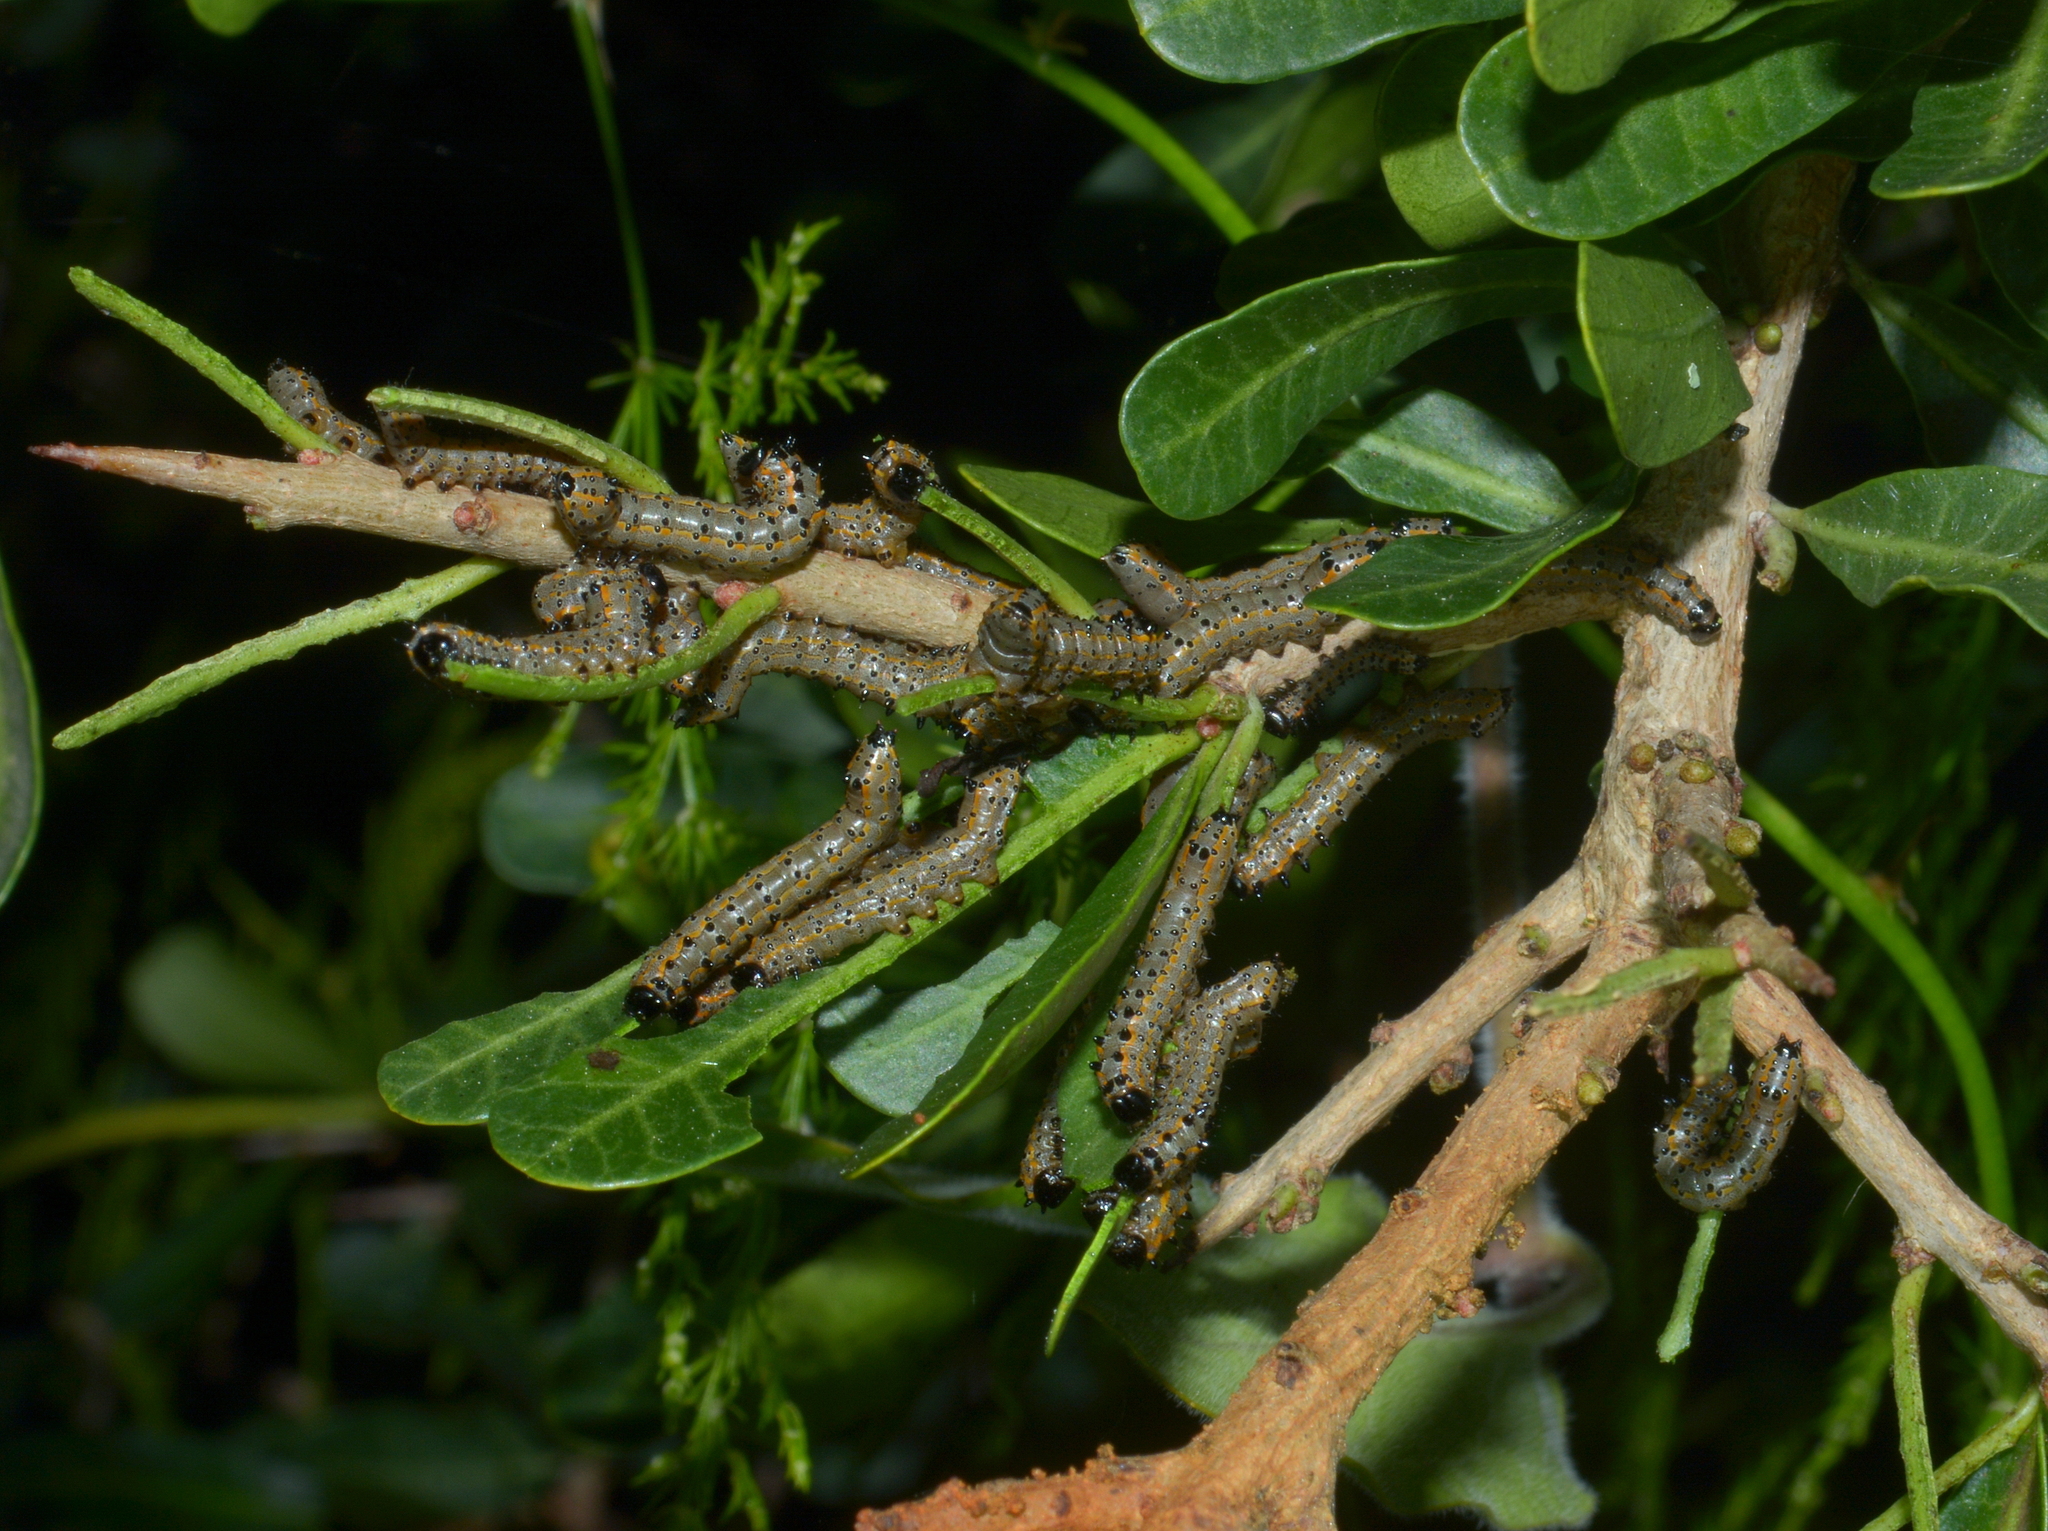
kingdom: Animalia
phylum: Arthropoda
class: Insecta
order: Lepidoptera
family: Notodontidae
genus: Tecmessa
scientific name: Tecmessa annulipes
